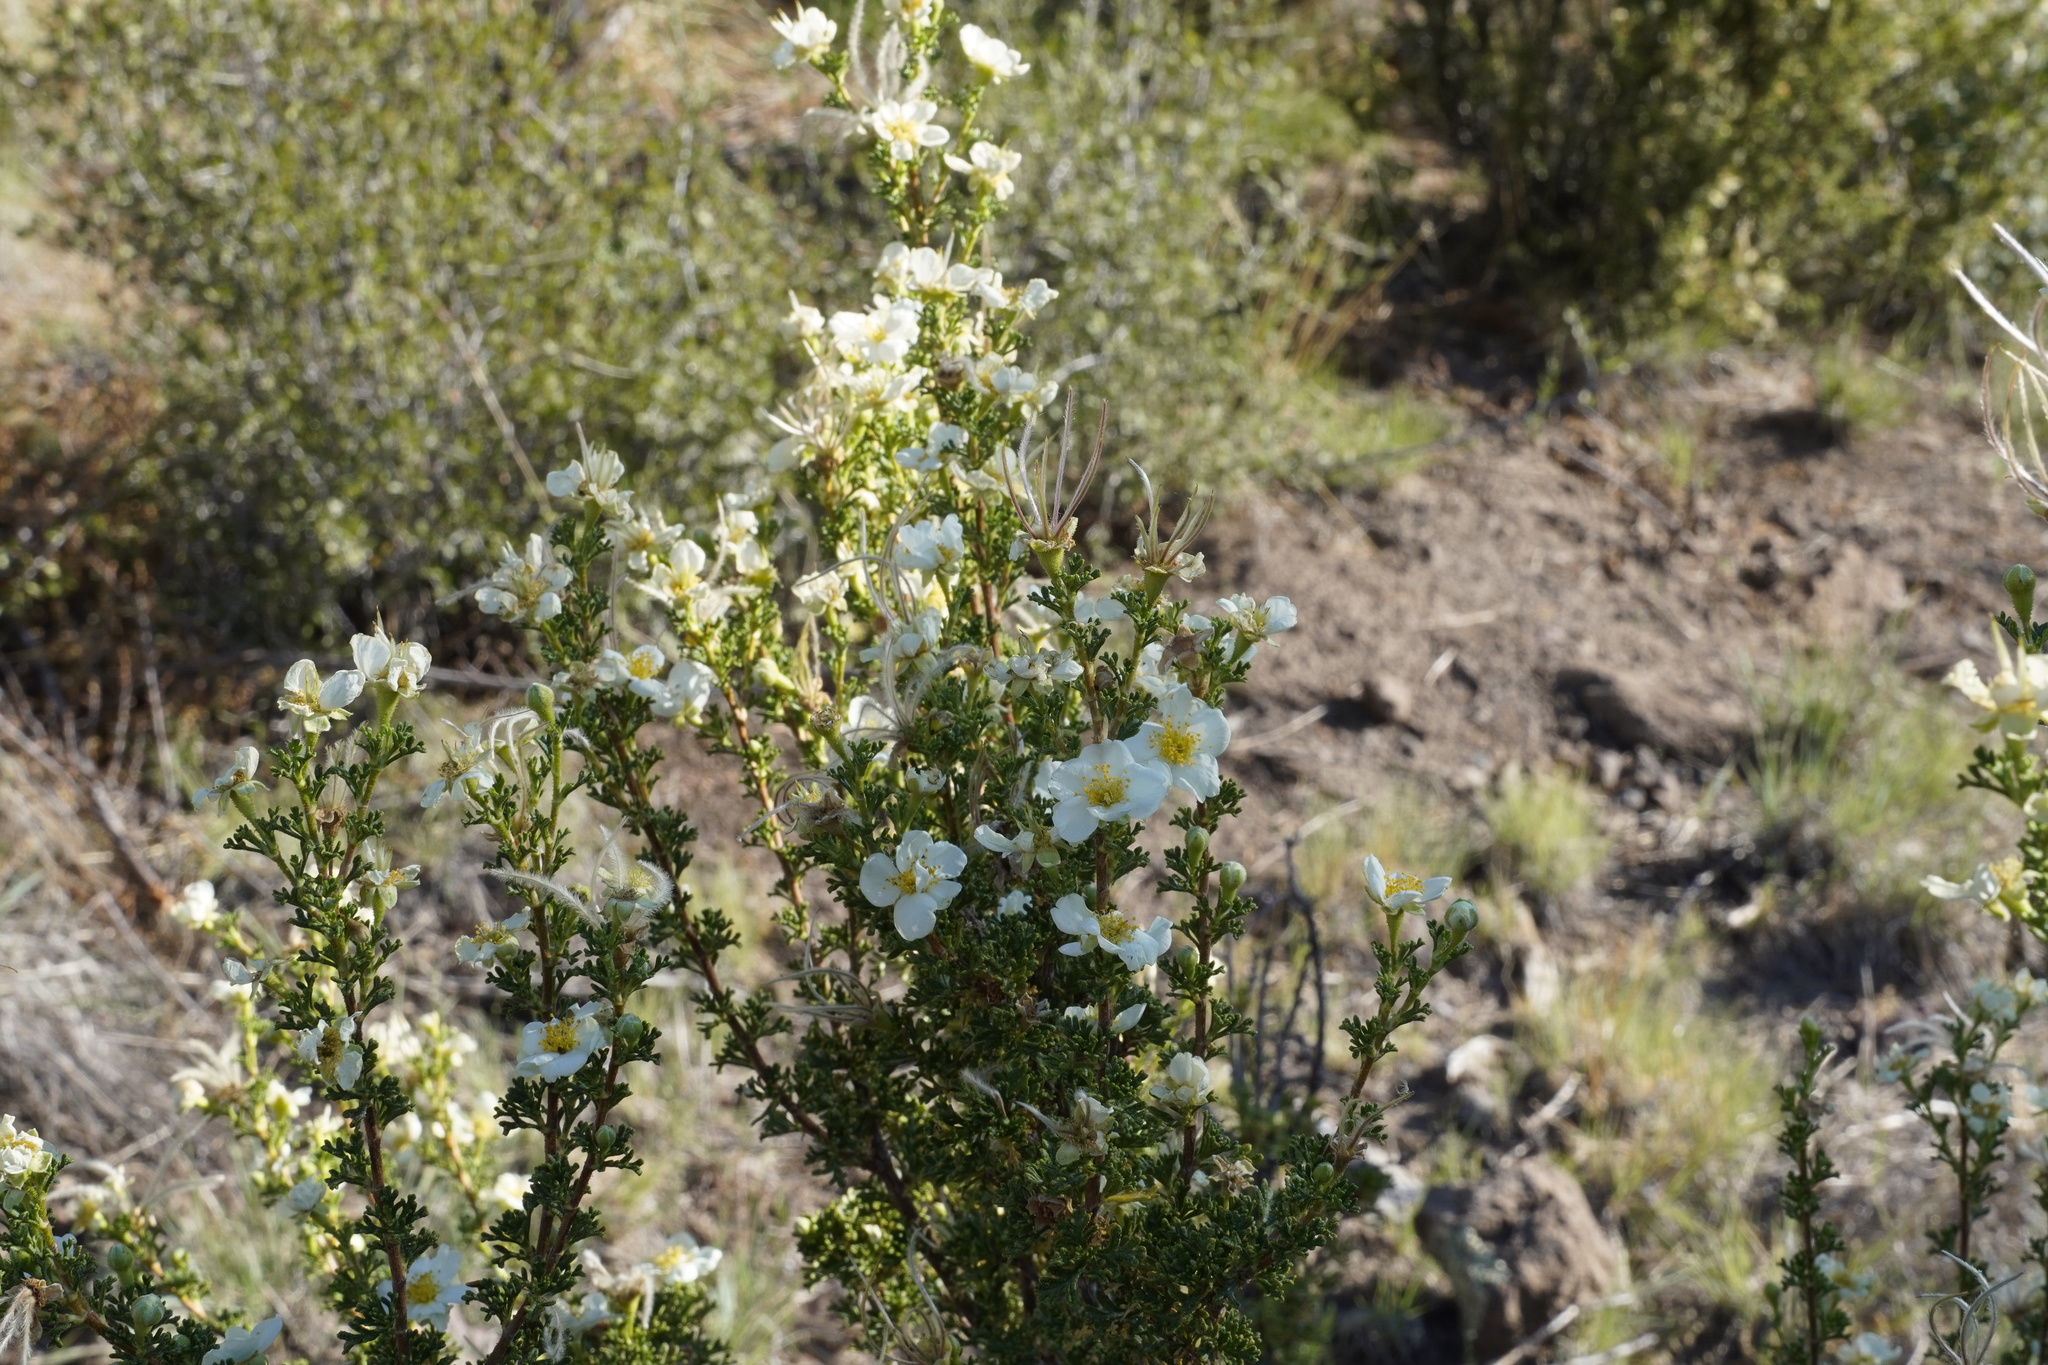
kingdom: Plantae
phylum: Tracheophyta
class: Magnoliopsida
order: Rosales
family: Rosaceae
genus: Purshia
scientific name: Purshia stansburiana
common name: Stansbury's cliffrose
